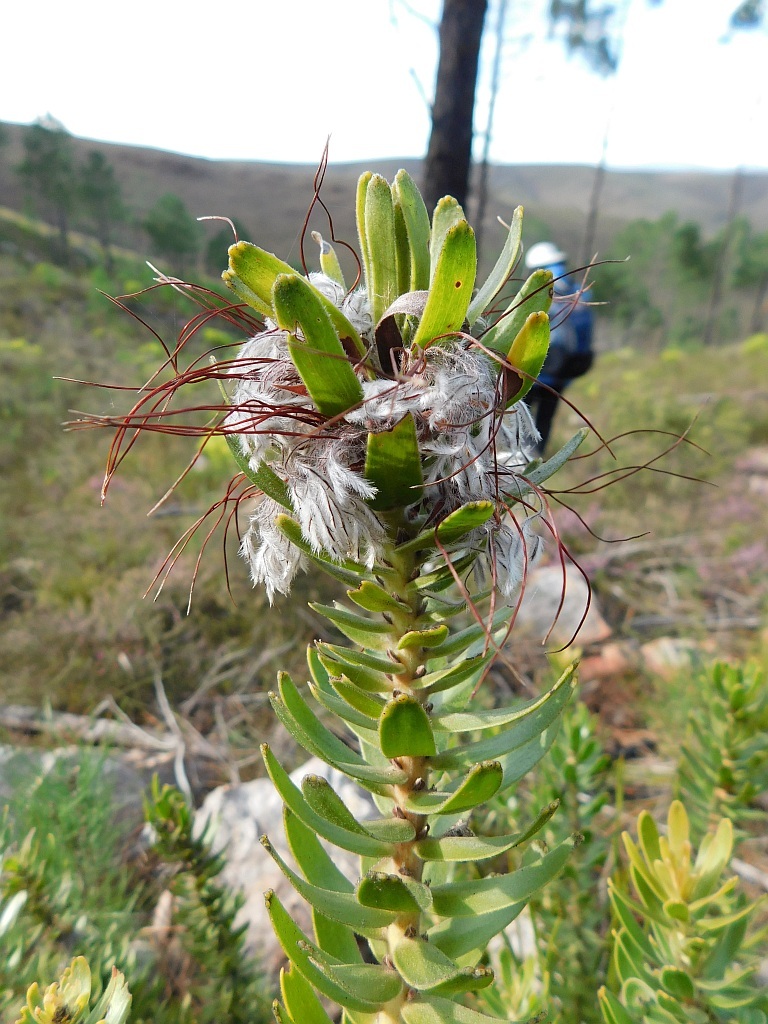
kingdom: Plantae
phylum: Tracheophyta
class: Magnoliopsida
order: Proteales
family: Proteaceae
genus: Mimetes
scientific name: Mimetes cucullatus
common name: Common pagoda
